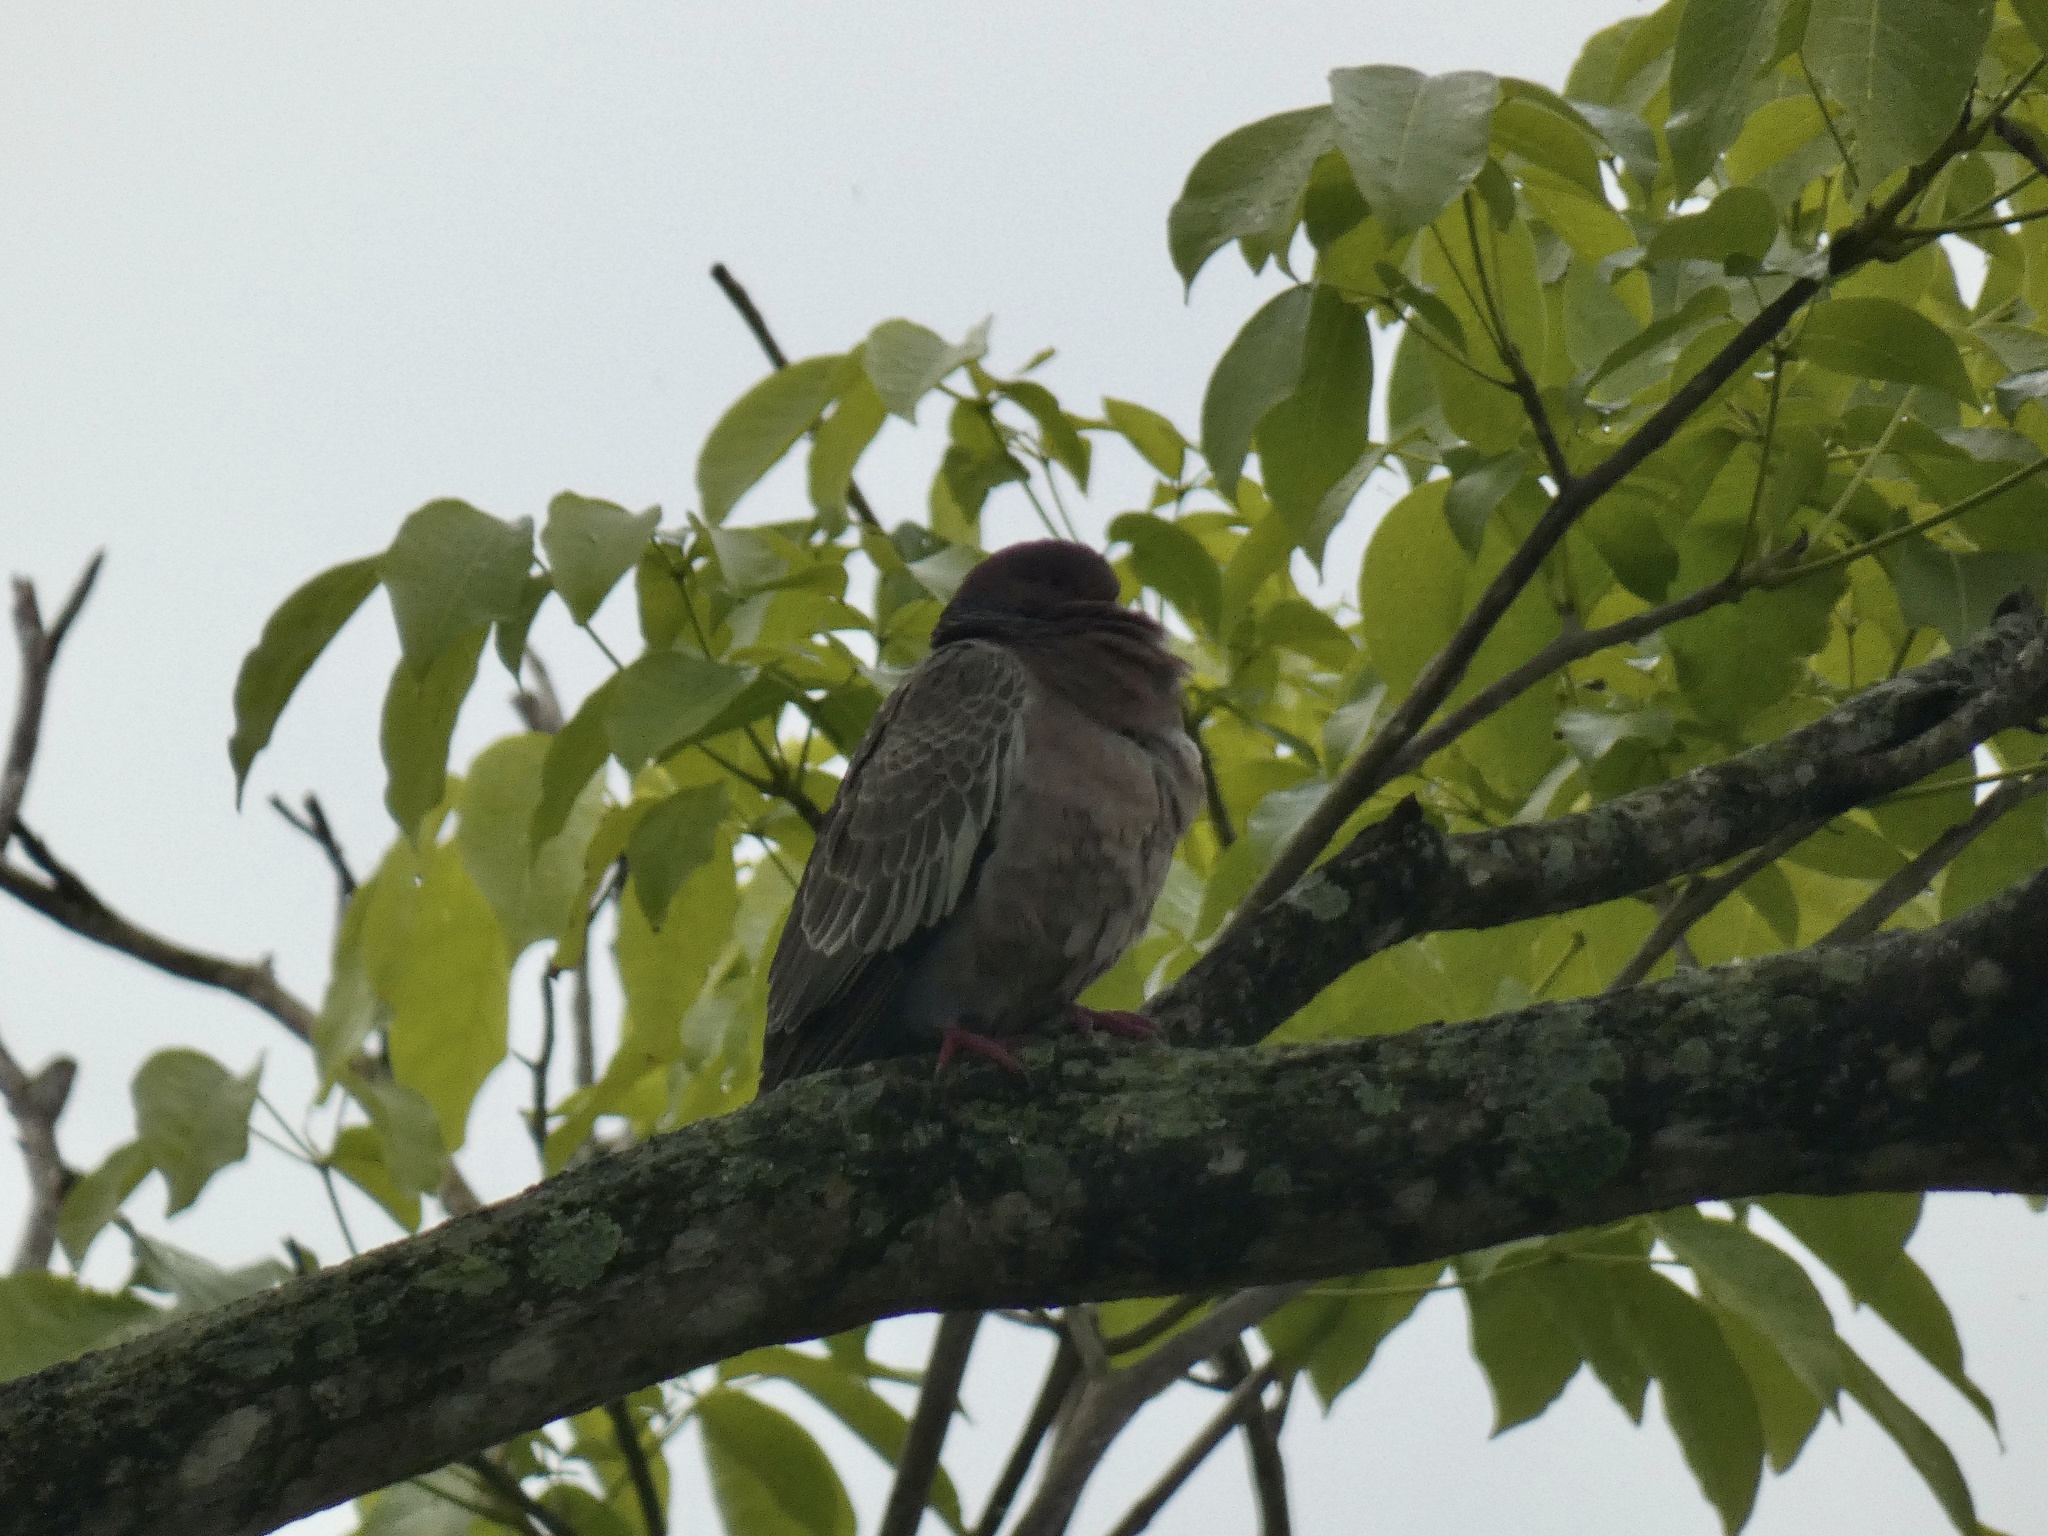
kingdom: Animalia
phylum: Chordata
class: Aves
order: Columbiformes
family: Columbidae
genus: Patagioenas
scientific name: Patagioenas picazuro
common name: Picazuro pigeon
